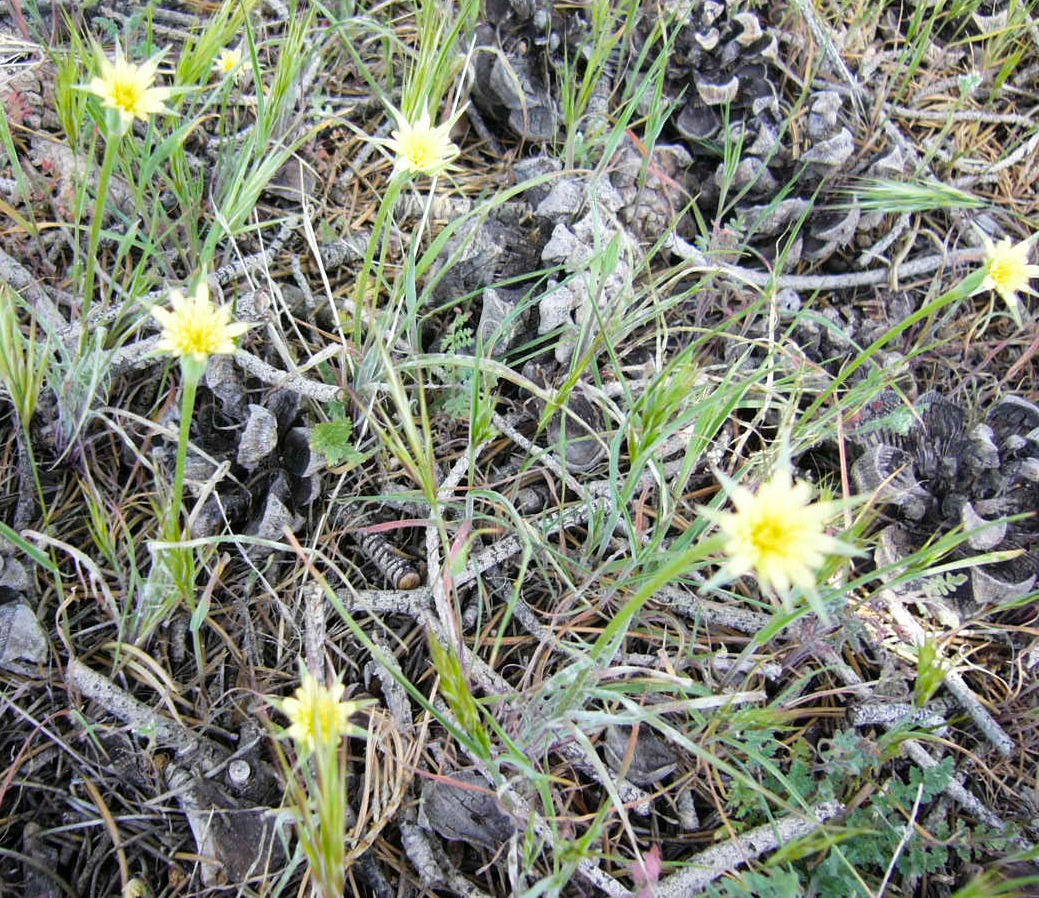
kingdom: Plantae
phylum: Tracheophyta
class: Magnoliopsida
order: Asterales
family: Asteraceae
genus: Microseris
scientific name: Microseris lindleyi
